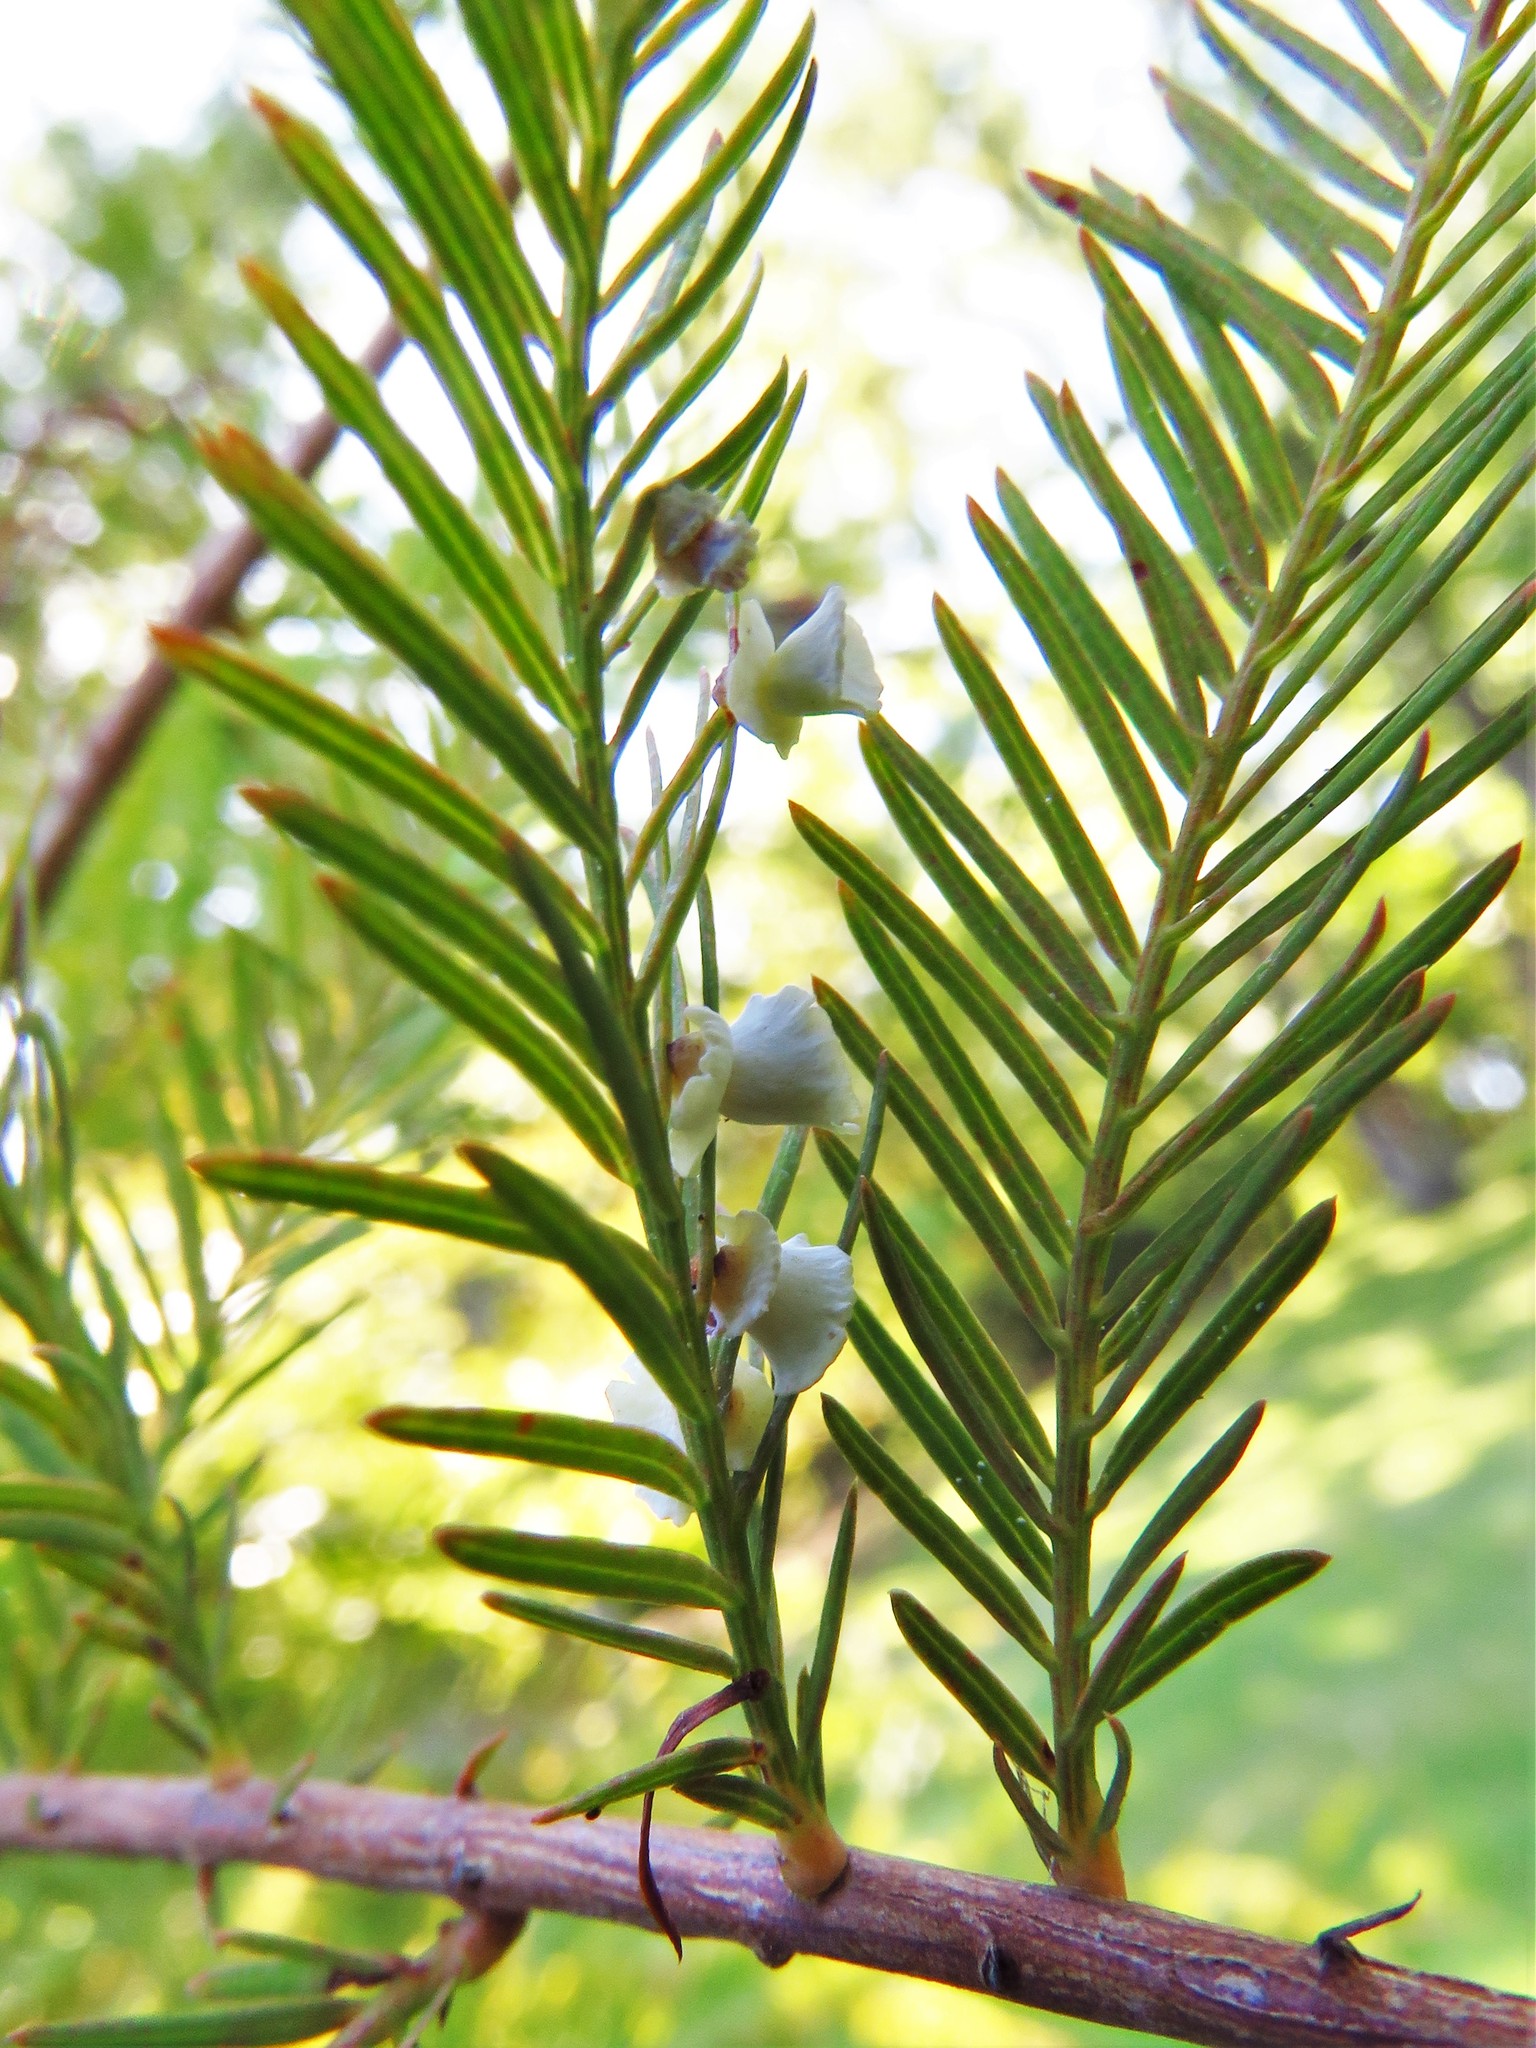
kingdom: Animalia
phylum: Arthropoda
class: Insecta
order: Diptera
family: Cecidomyiidae
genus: Taxodiomyia
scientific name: Taxodiomyia cupressi
